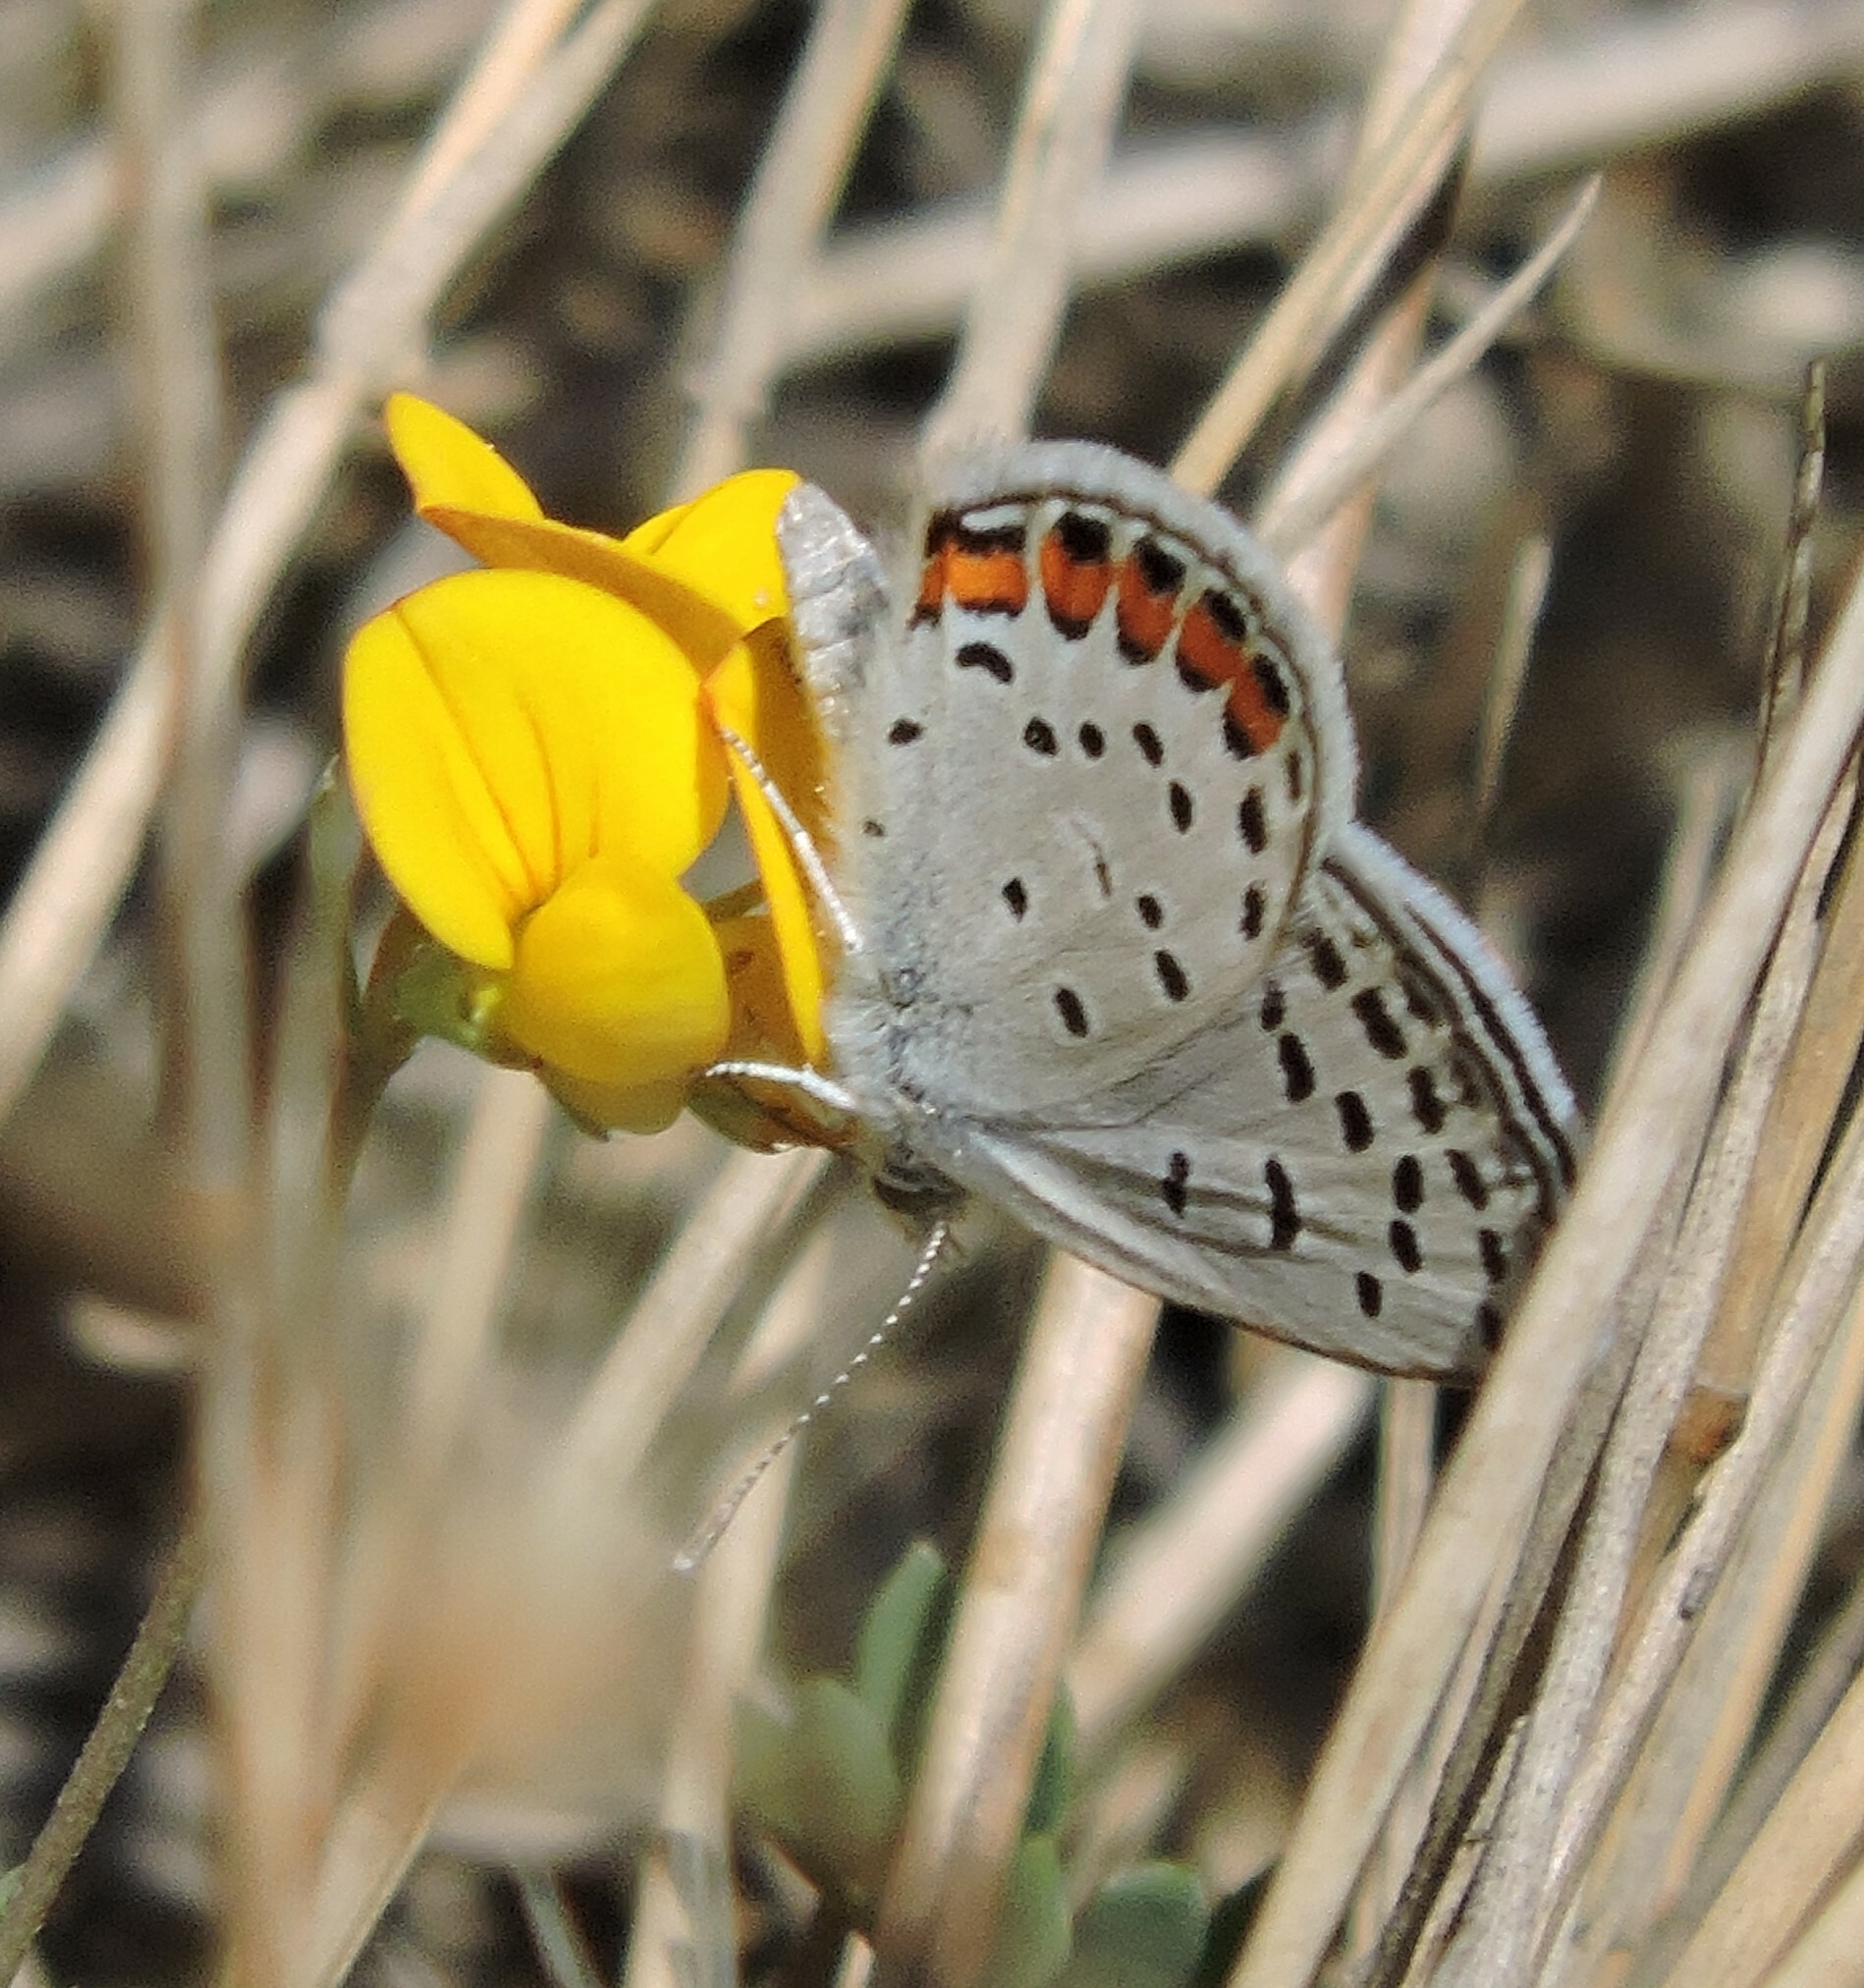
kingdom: Animalia
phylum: Arthropoda
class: Insecta
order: Lepidoptera
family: Lycaenidae
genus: Icaricia
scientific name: Icaricia acmon
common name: Acmon blue
